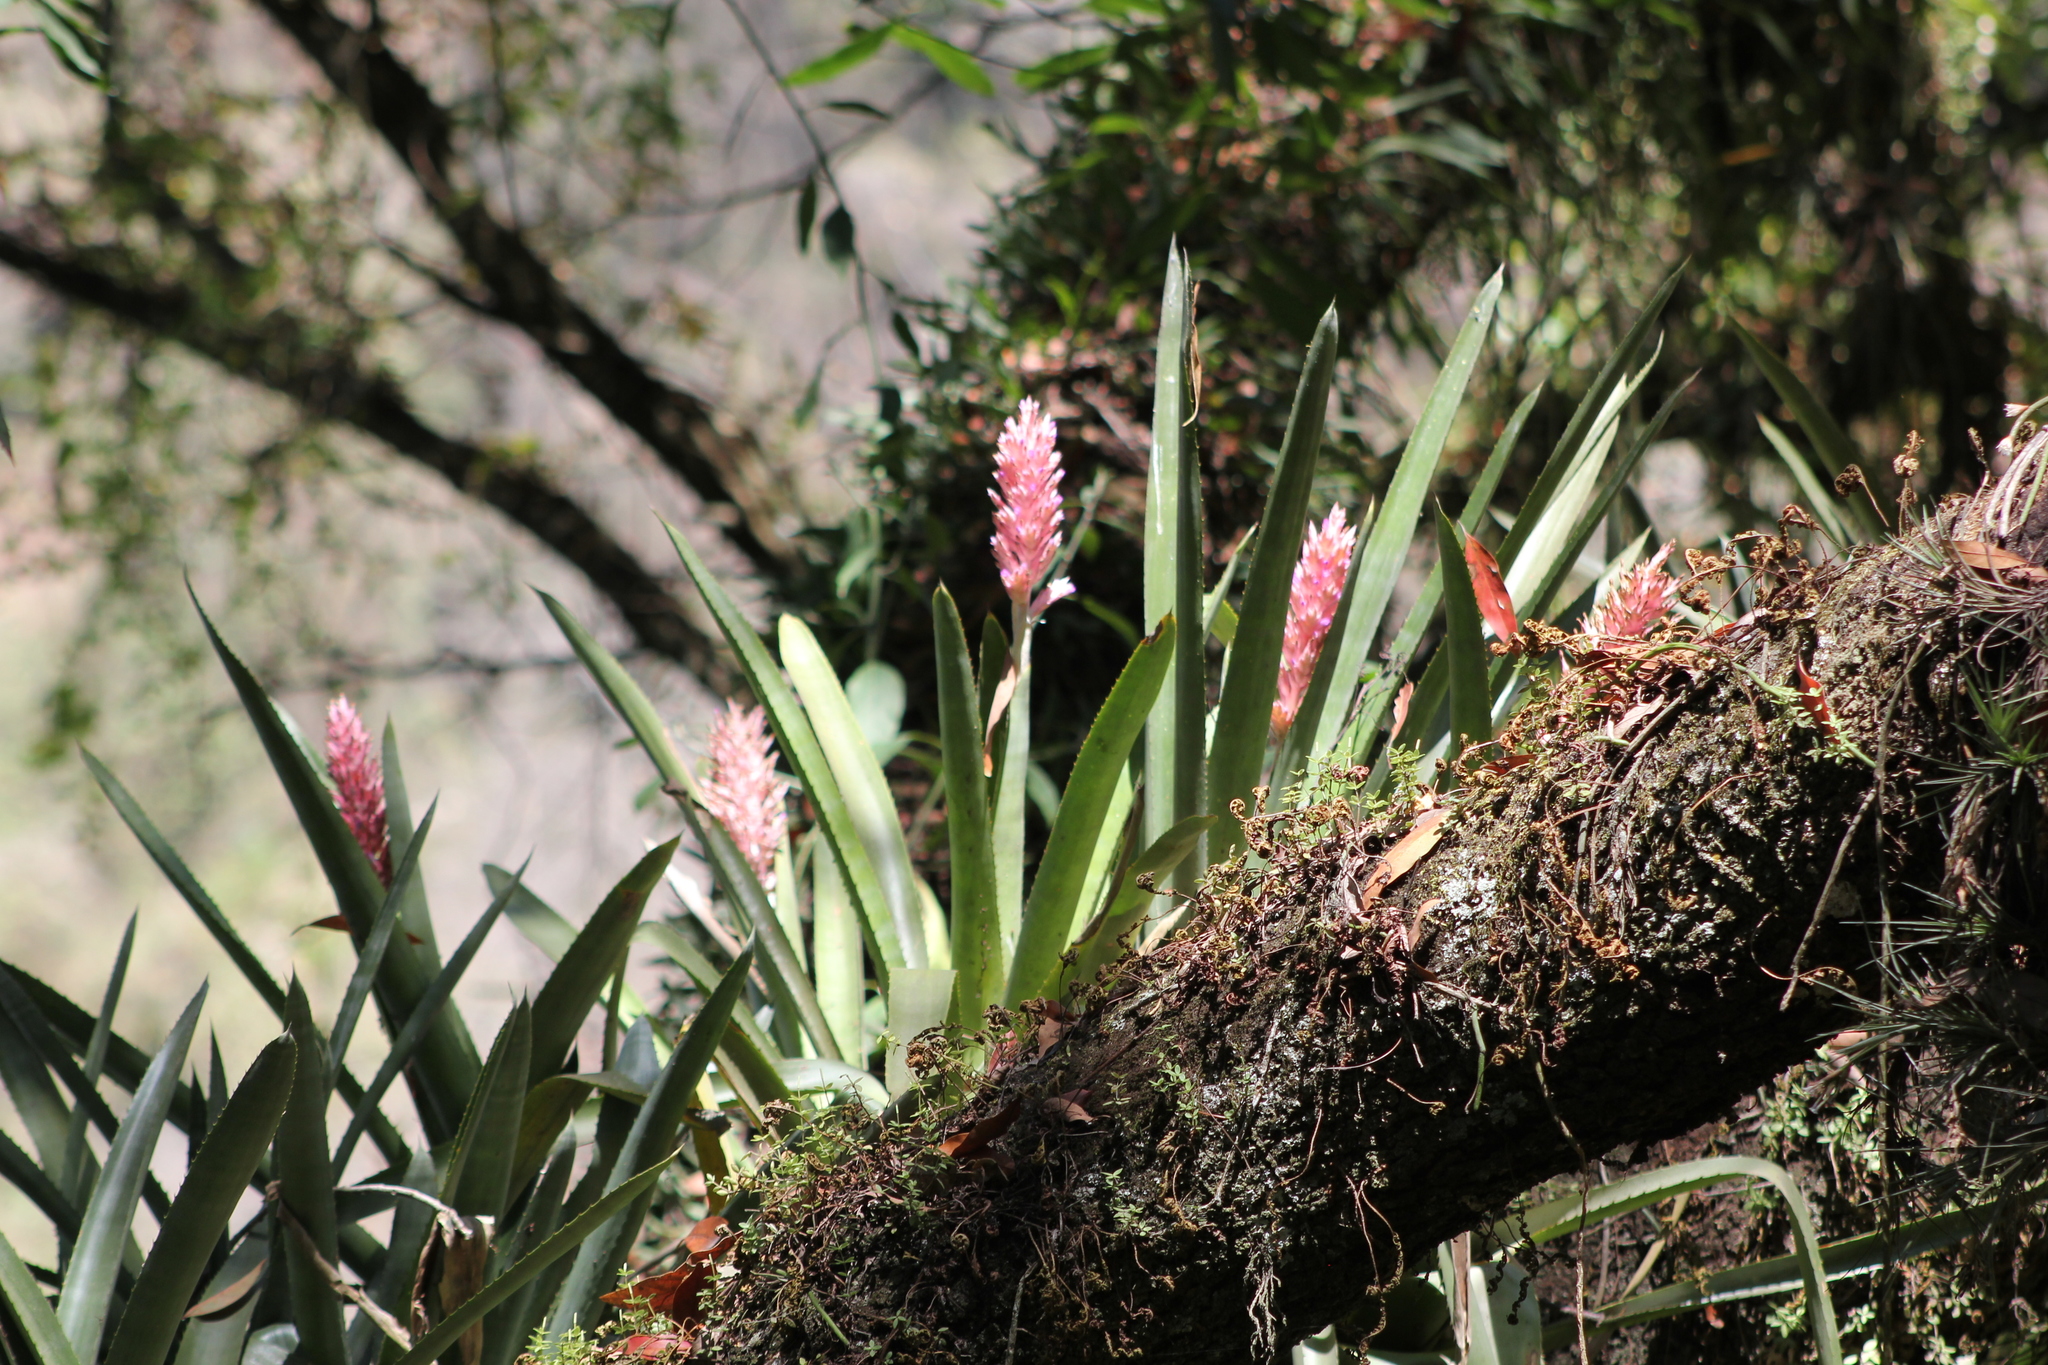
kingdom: Plantae
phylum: Tracheophyta
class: Liliopsida
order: Poales
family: Bromeliaceae
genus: Aechmea
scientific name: Aechmea distichantha
